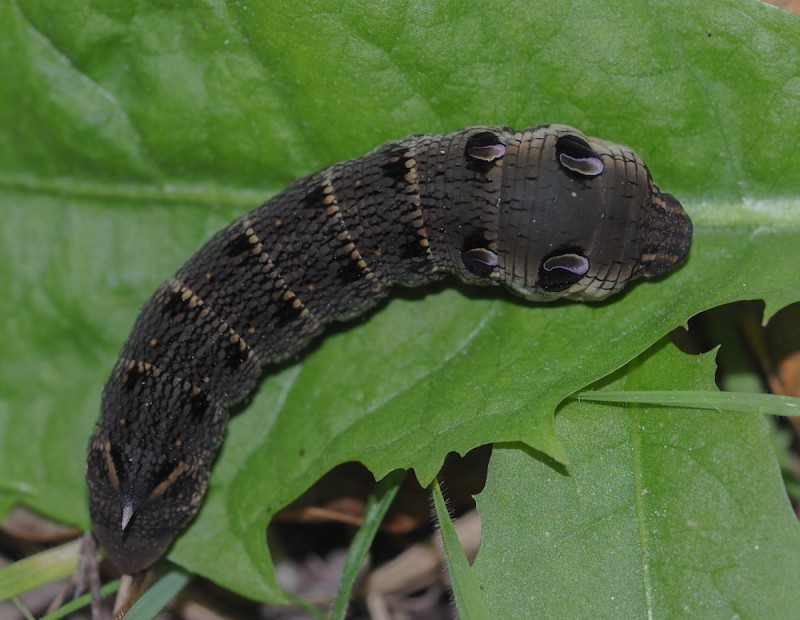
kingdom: Animalia
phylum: Arthropoda
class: Insecta
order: Lepidoptera
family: Sphingidae
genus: Deilephila
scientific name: Deilephila elpenor
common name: Elephant hawk-moth
